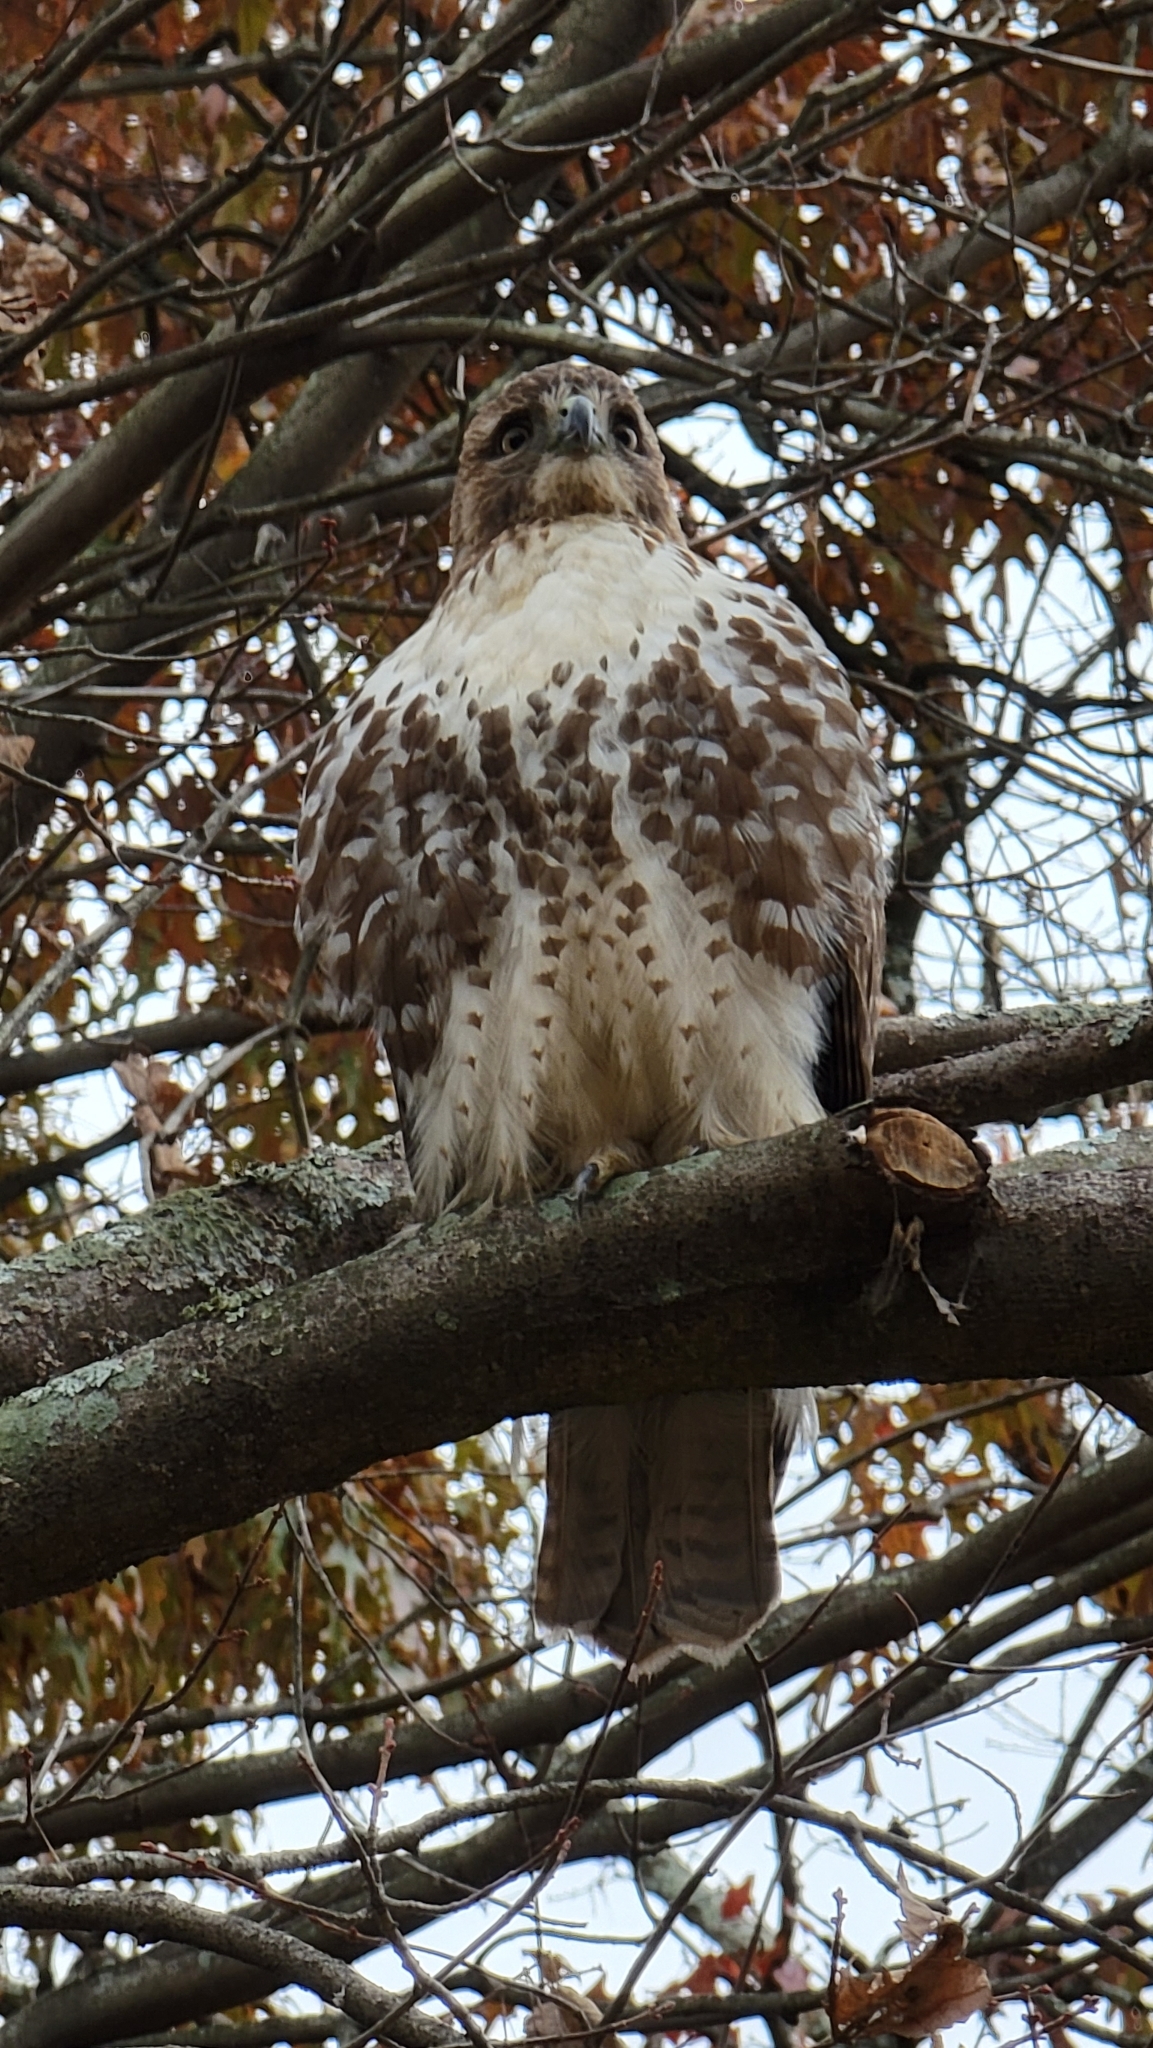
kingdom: Animalia
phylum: Chordata
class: Aves
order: Accipitriformes
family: Accipitridae
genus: Buteo
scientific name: Buteo jamaicensis
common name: Red-tailed hawk
